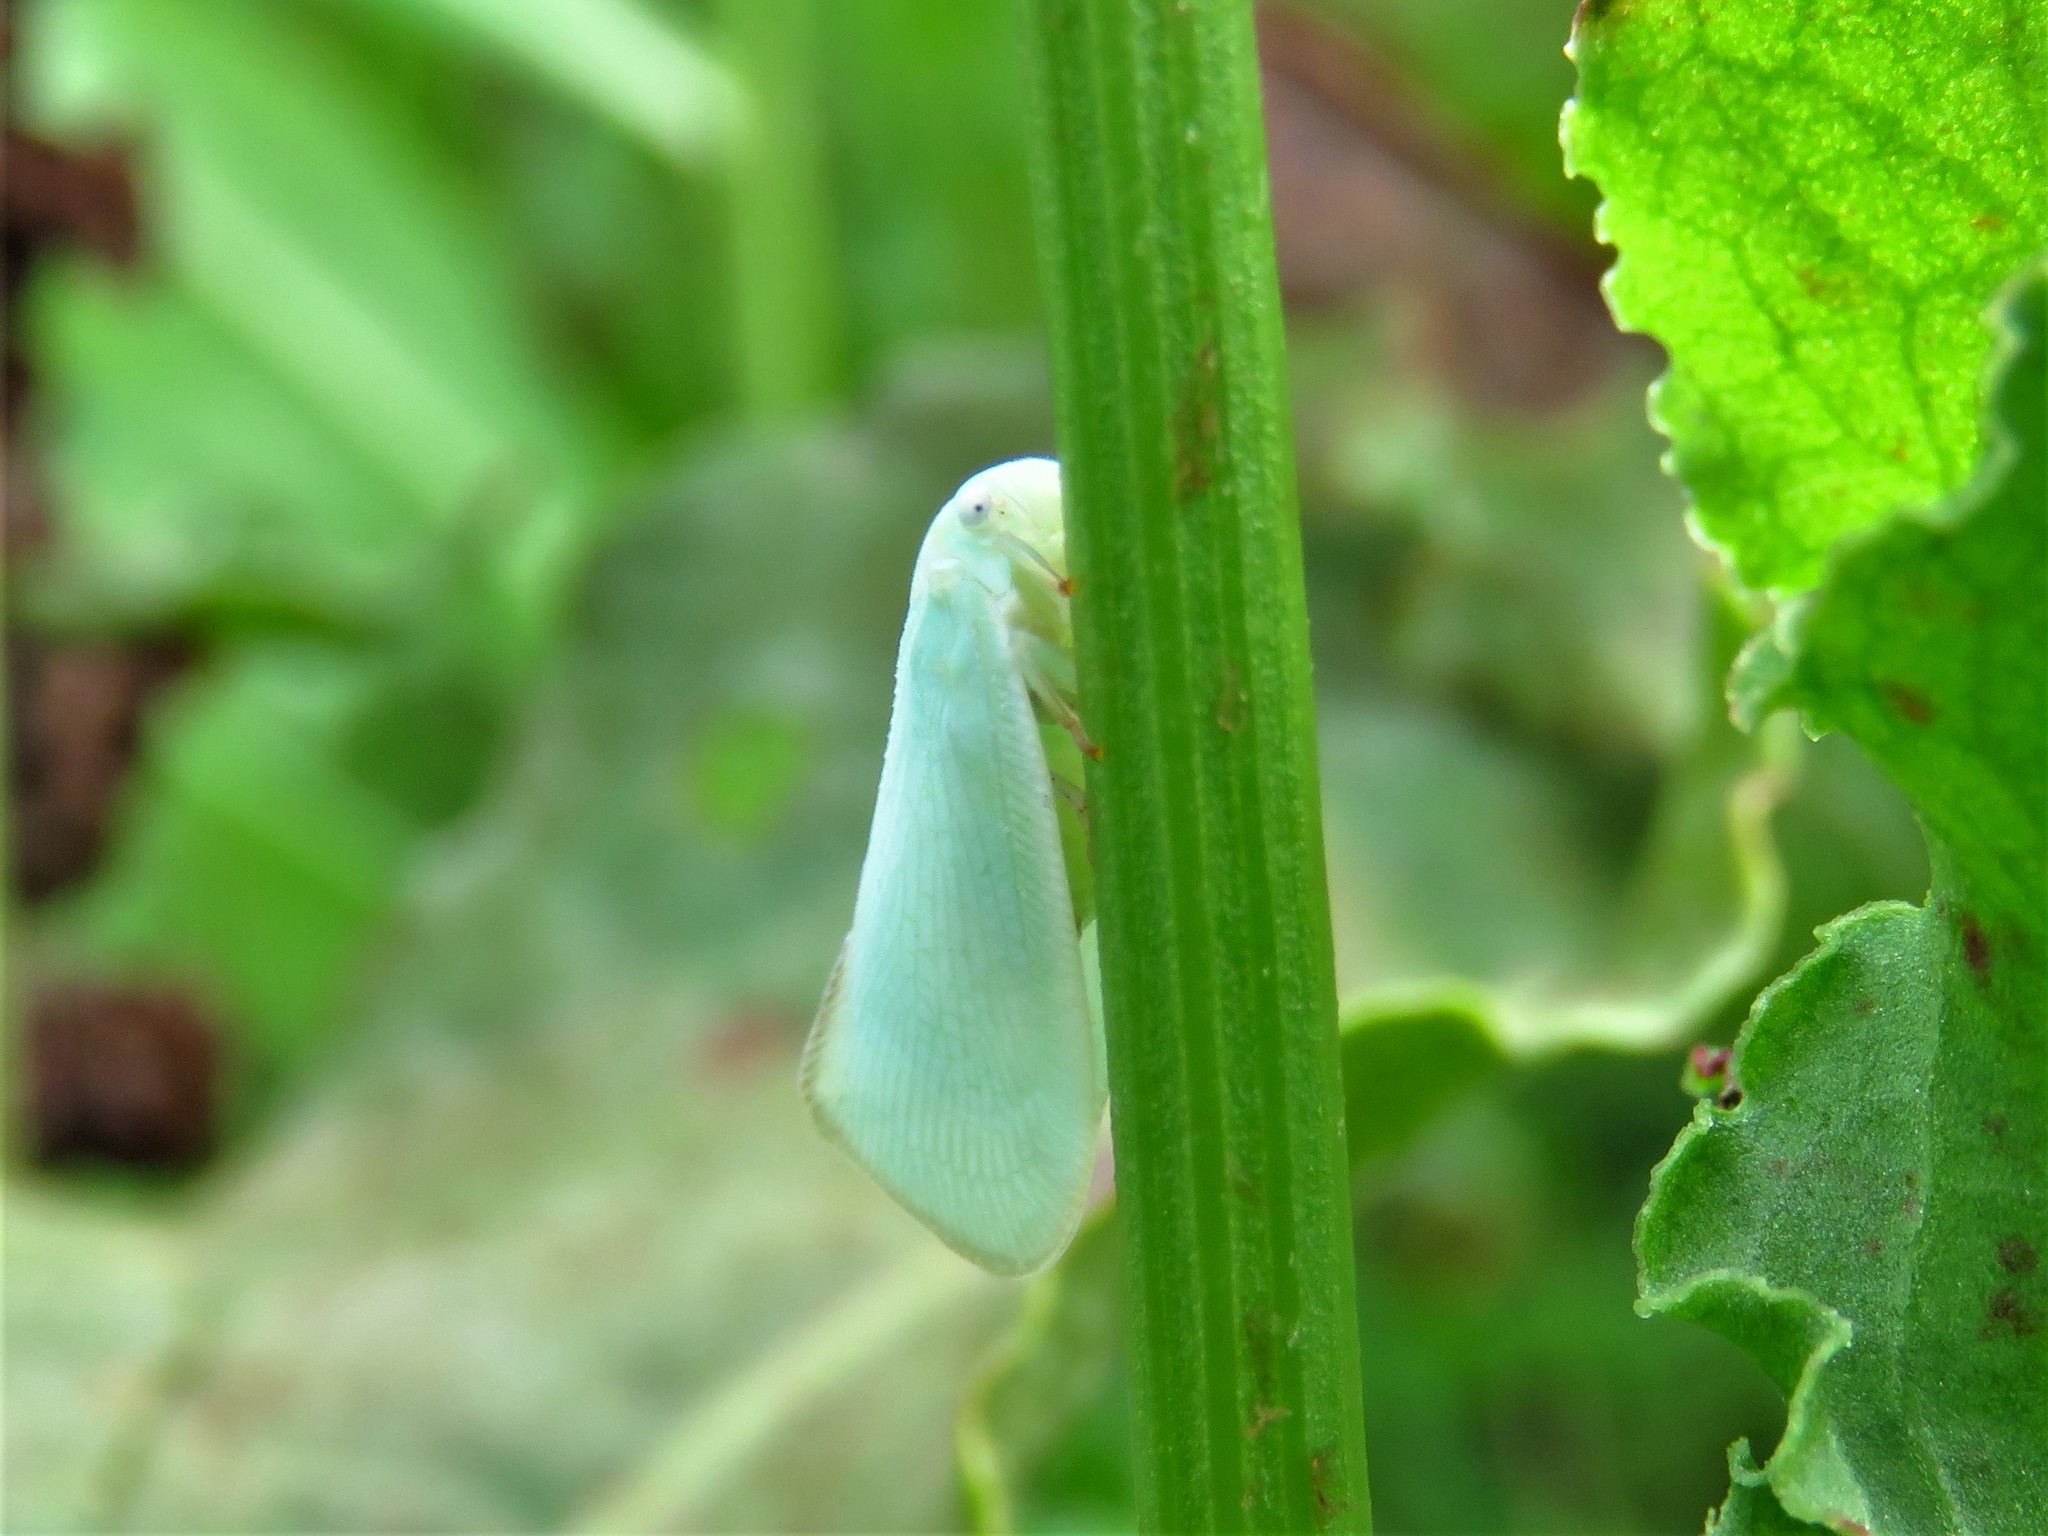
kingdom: Animalia
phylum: Arthropoda
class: Insecta
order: Hemiptera
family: Flatidae
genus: Flatormenis
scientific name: Flatormenis proxima
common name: Northern flatid planthopper
